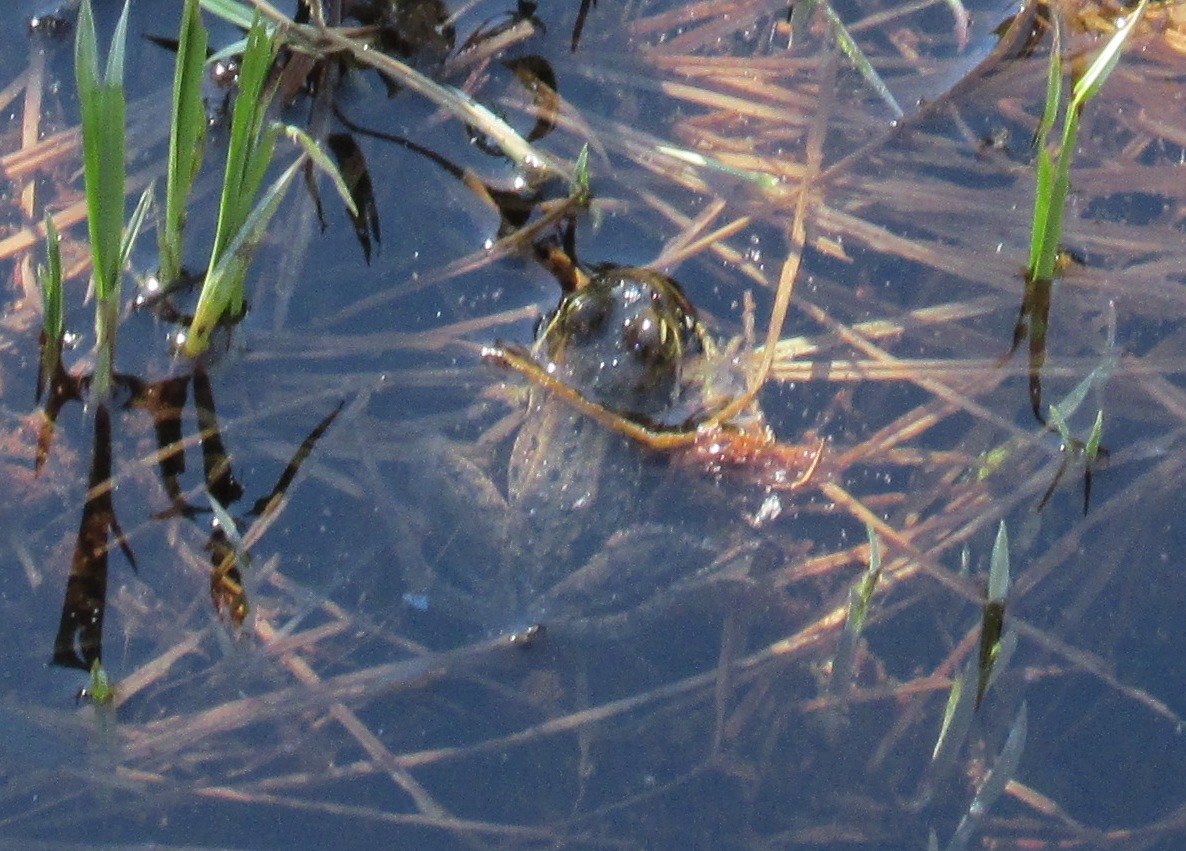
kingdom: Animalia
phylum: Chordata
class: Amphibia
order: Anura
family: Ranidae
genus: Rana
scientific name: Rana cascadae
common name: Cascades frog
